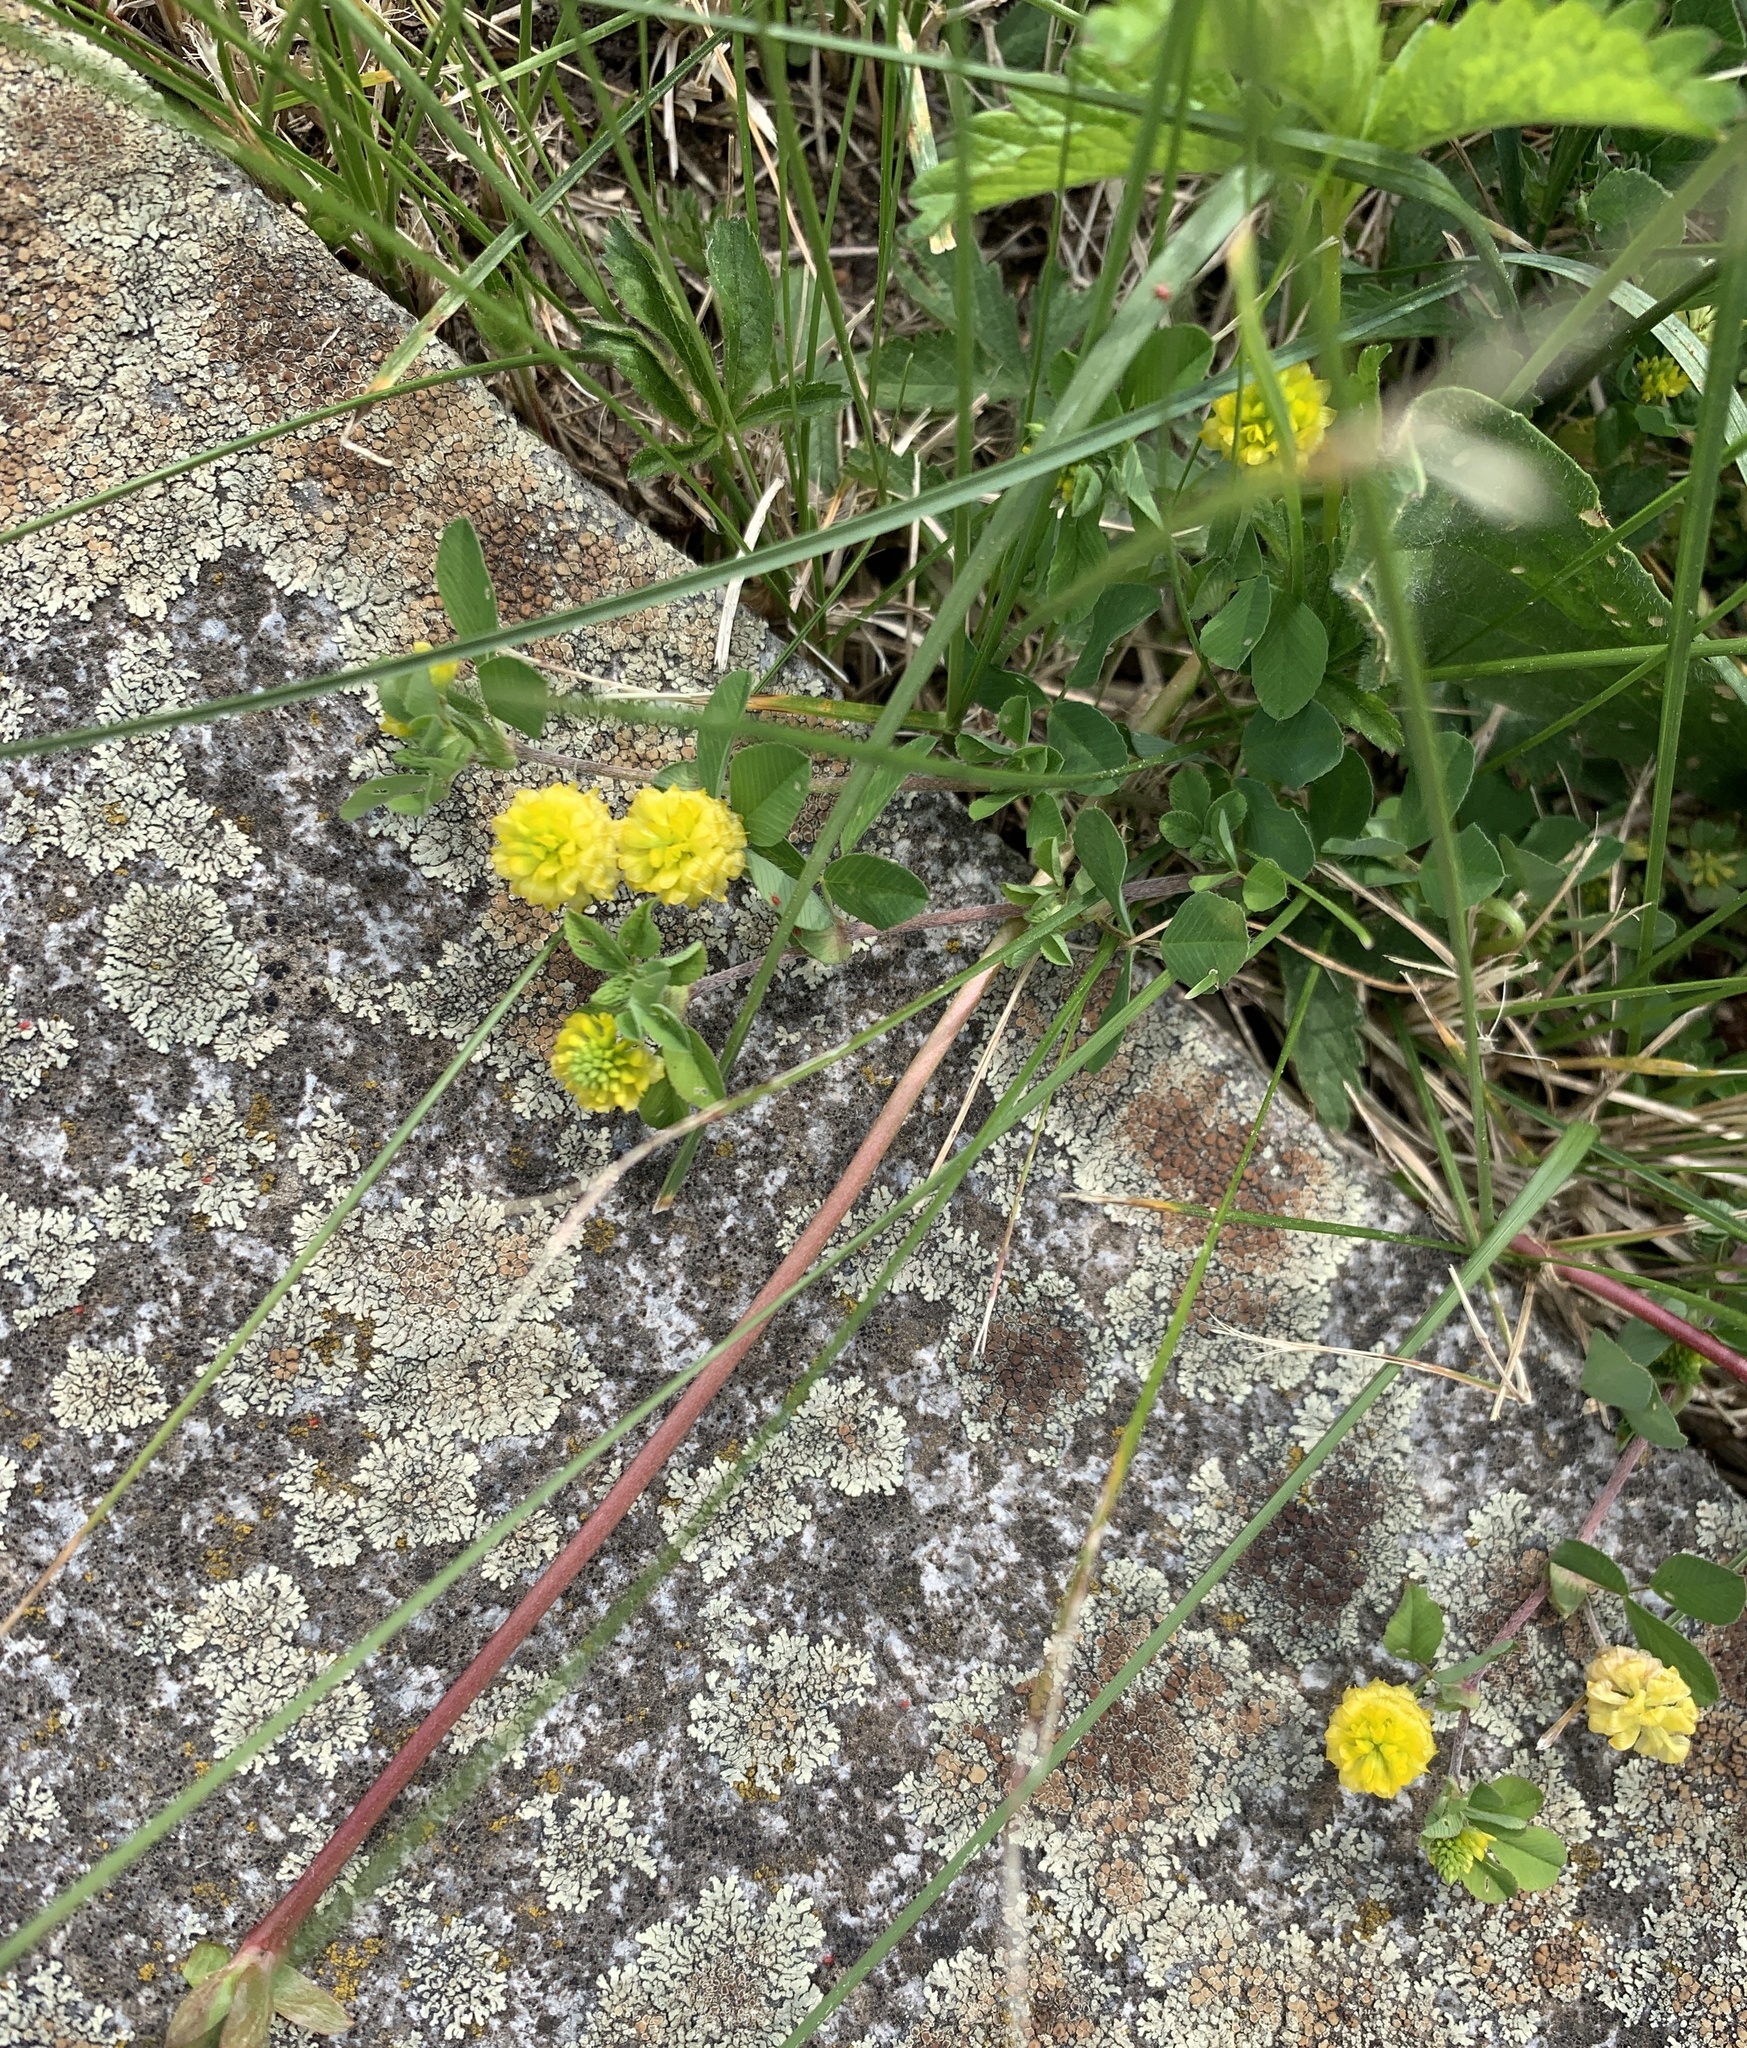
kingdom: Plantae
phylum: Tracheophyta
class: Magnoliopsida
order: Fabales
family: Fabaceae
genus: Medicago
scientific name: Medicago lupulina
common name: Black medick
